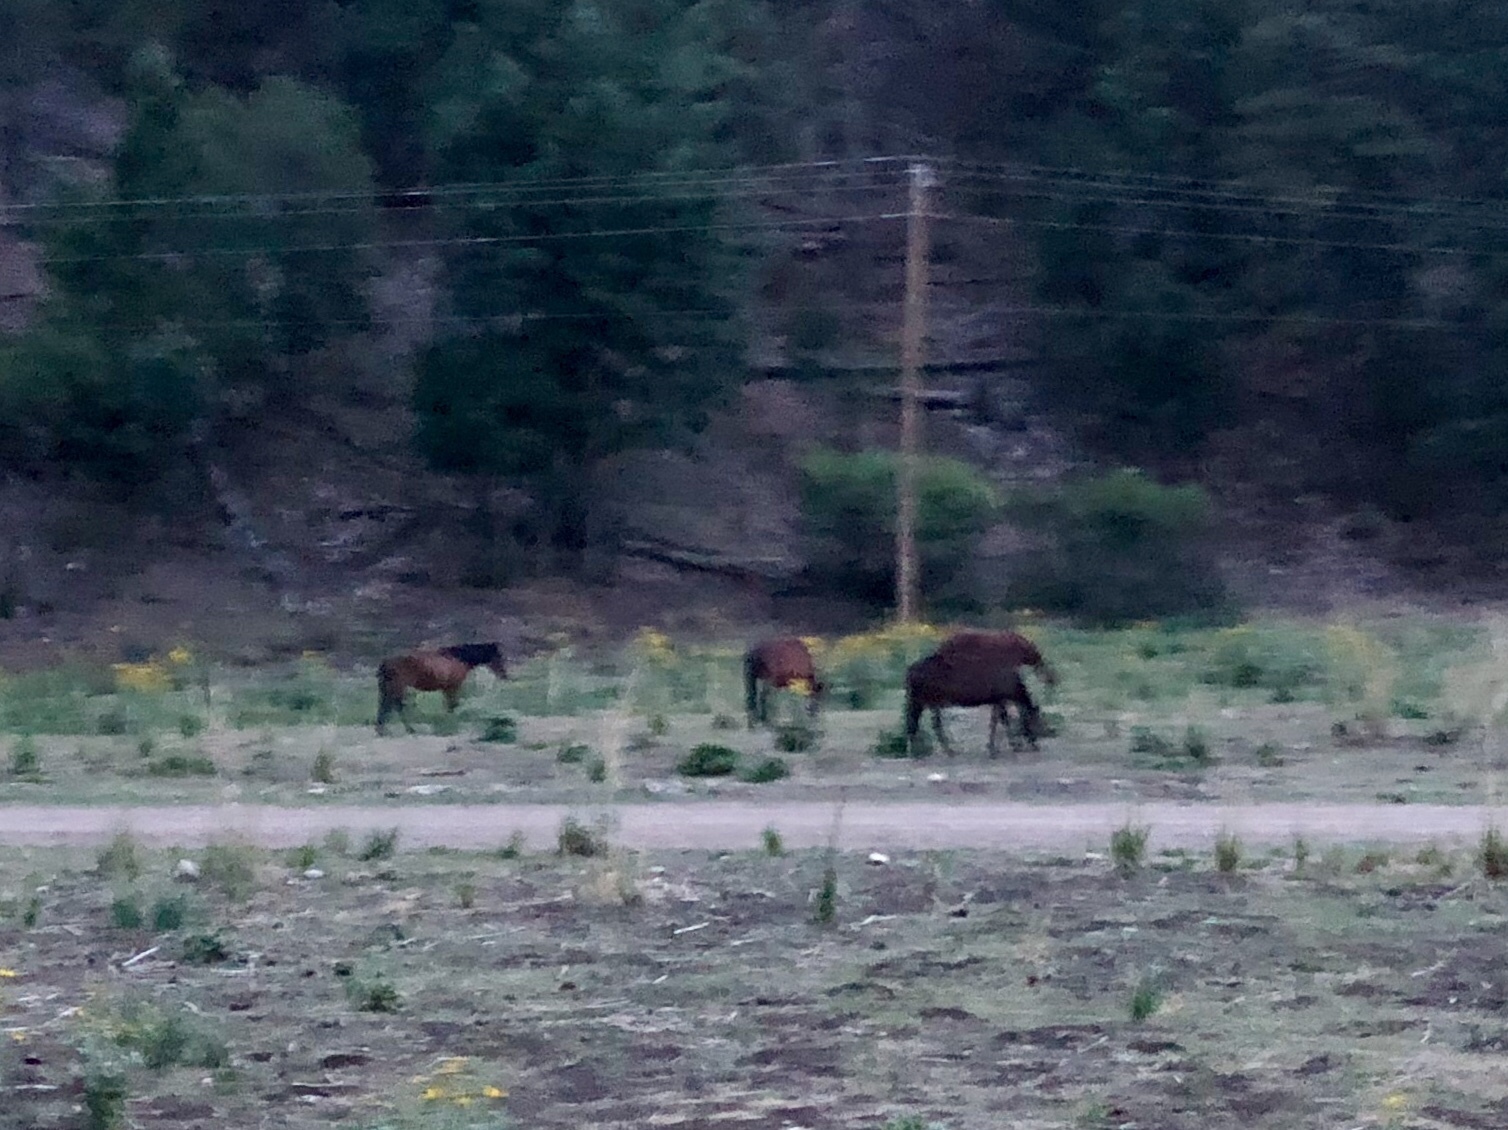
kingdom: Animalia
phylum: Chordata
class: Mammalia
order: Perissodactyla
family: Equidae
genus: Equus
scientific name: Equus caballus
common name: Horse
